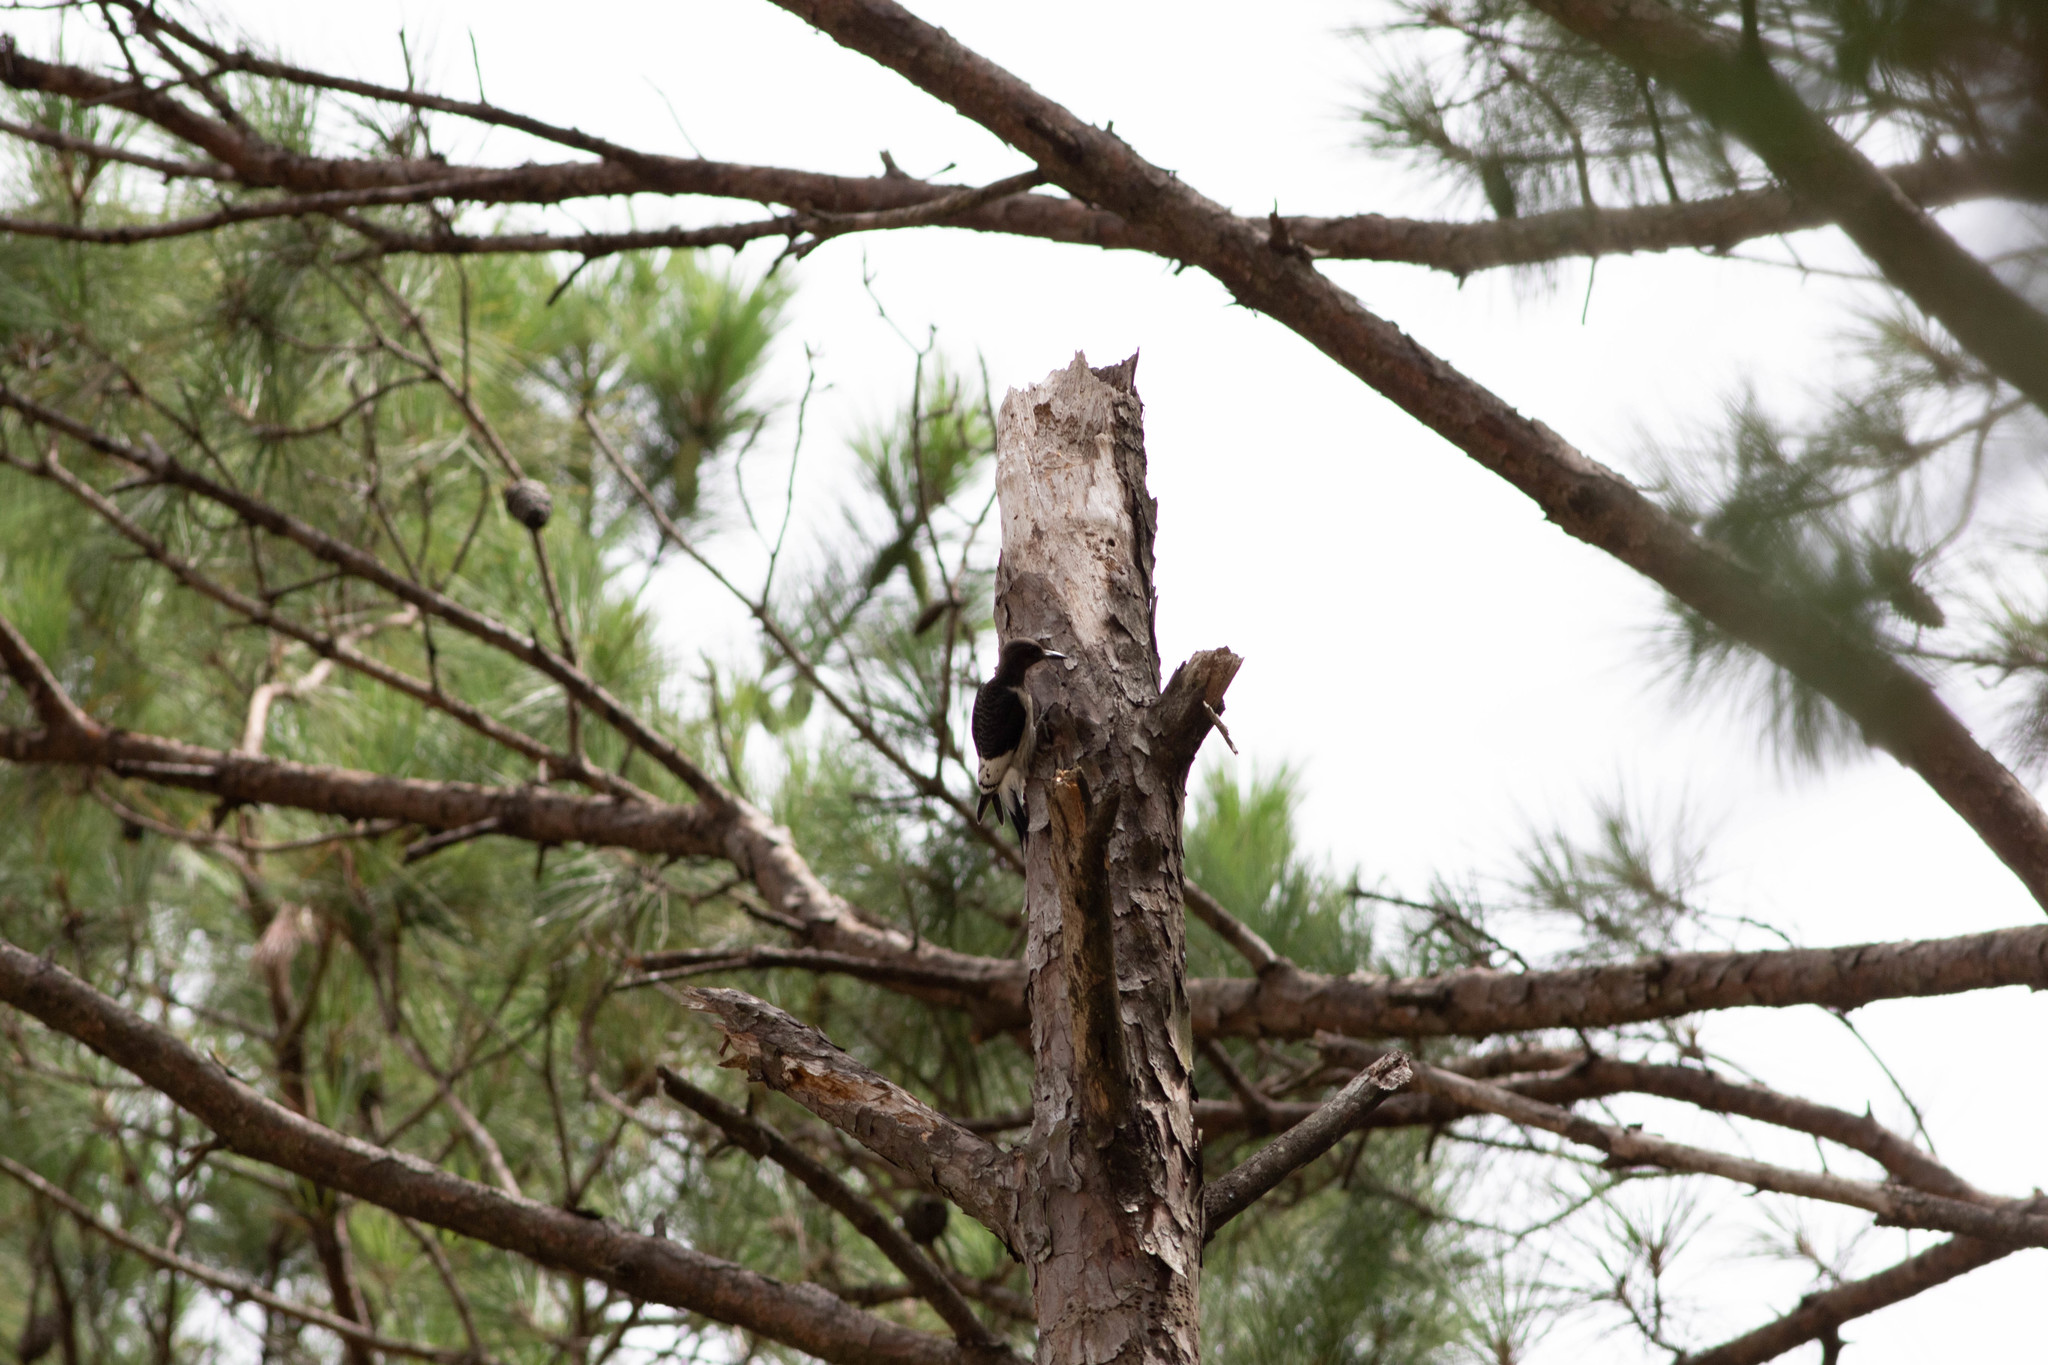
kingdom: Animalia
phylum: Chordata
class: Aves
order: Piciformes
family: Picidae
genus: Melanerpes
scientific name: Melanerpes erythrocephalus
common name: Red-headed woodpecker
